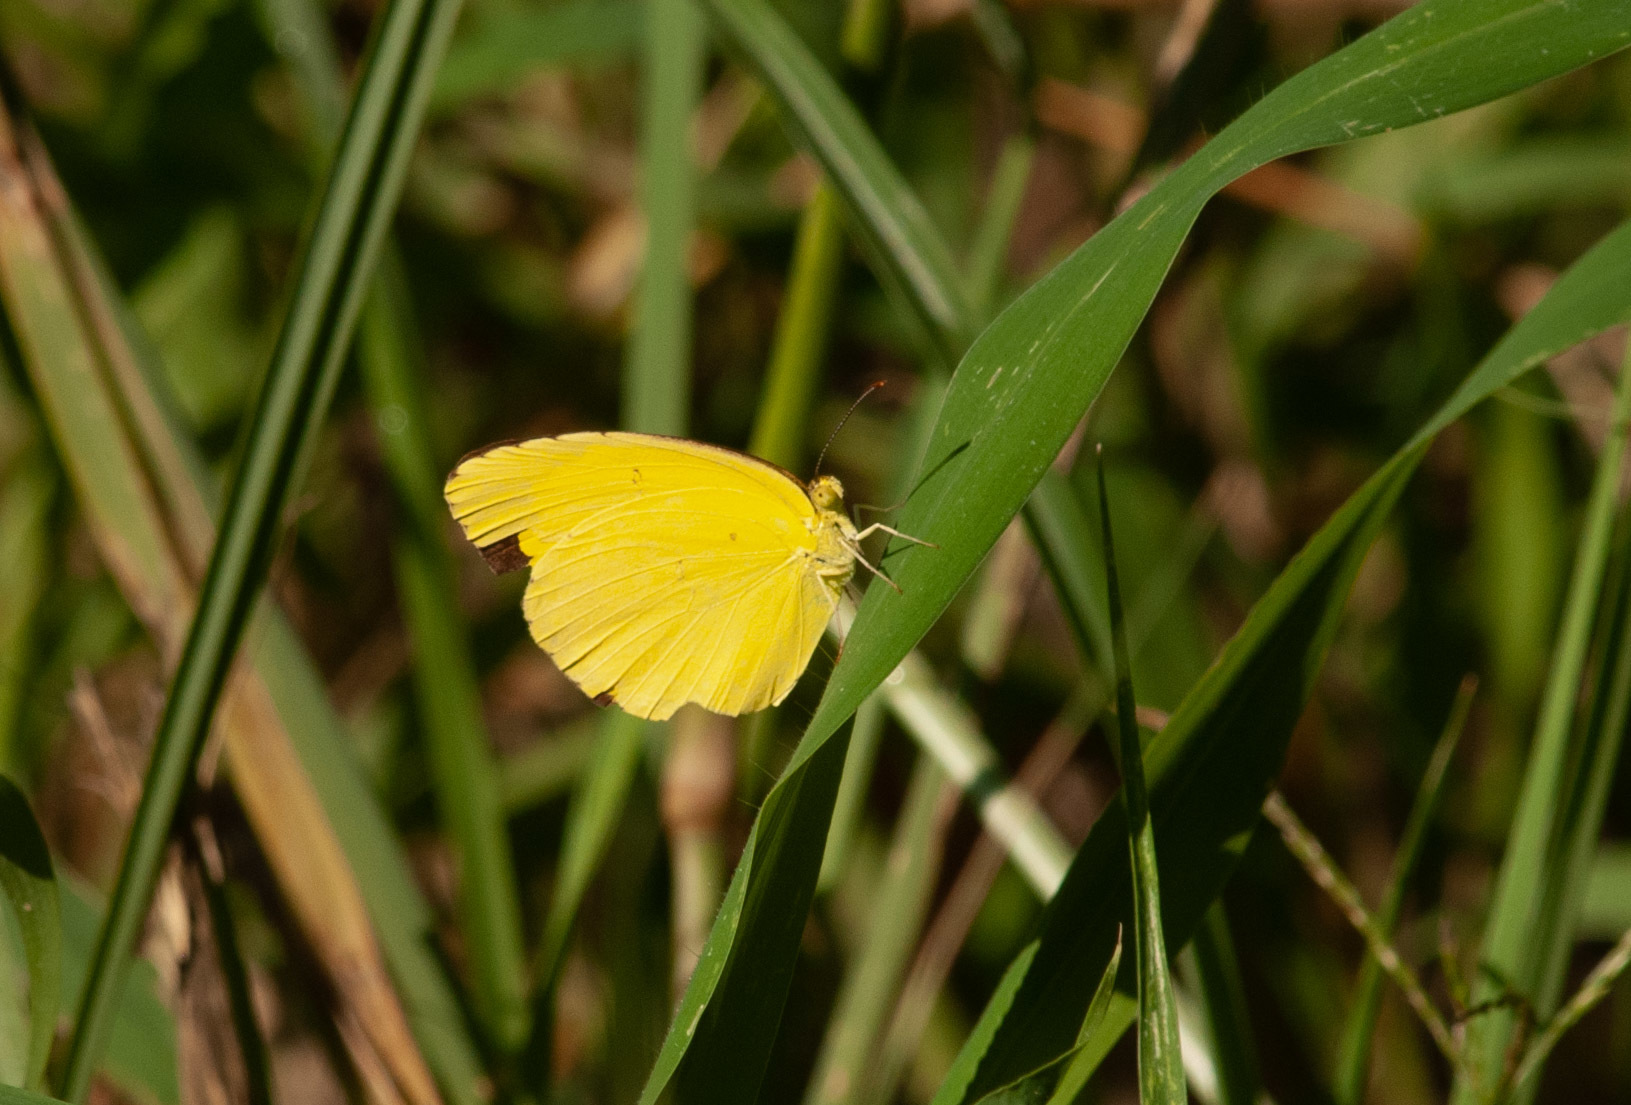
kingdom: Animalia
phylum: Arthropoda
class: Insecta
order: Lepidoptera
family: Pieridae
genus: Eurema
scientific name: Eurema hecabe
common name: Pale grass yellow
